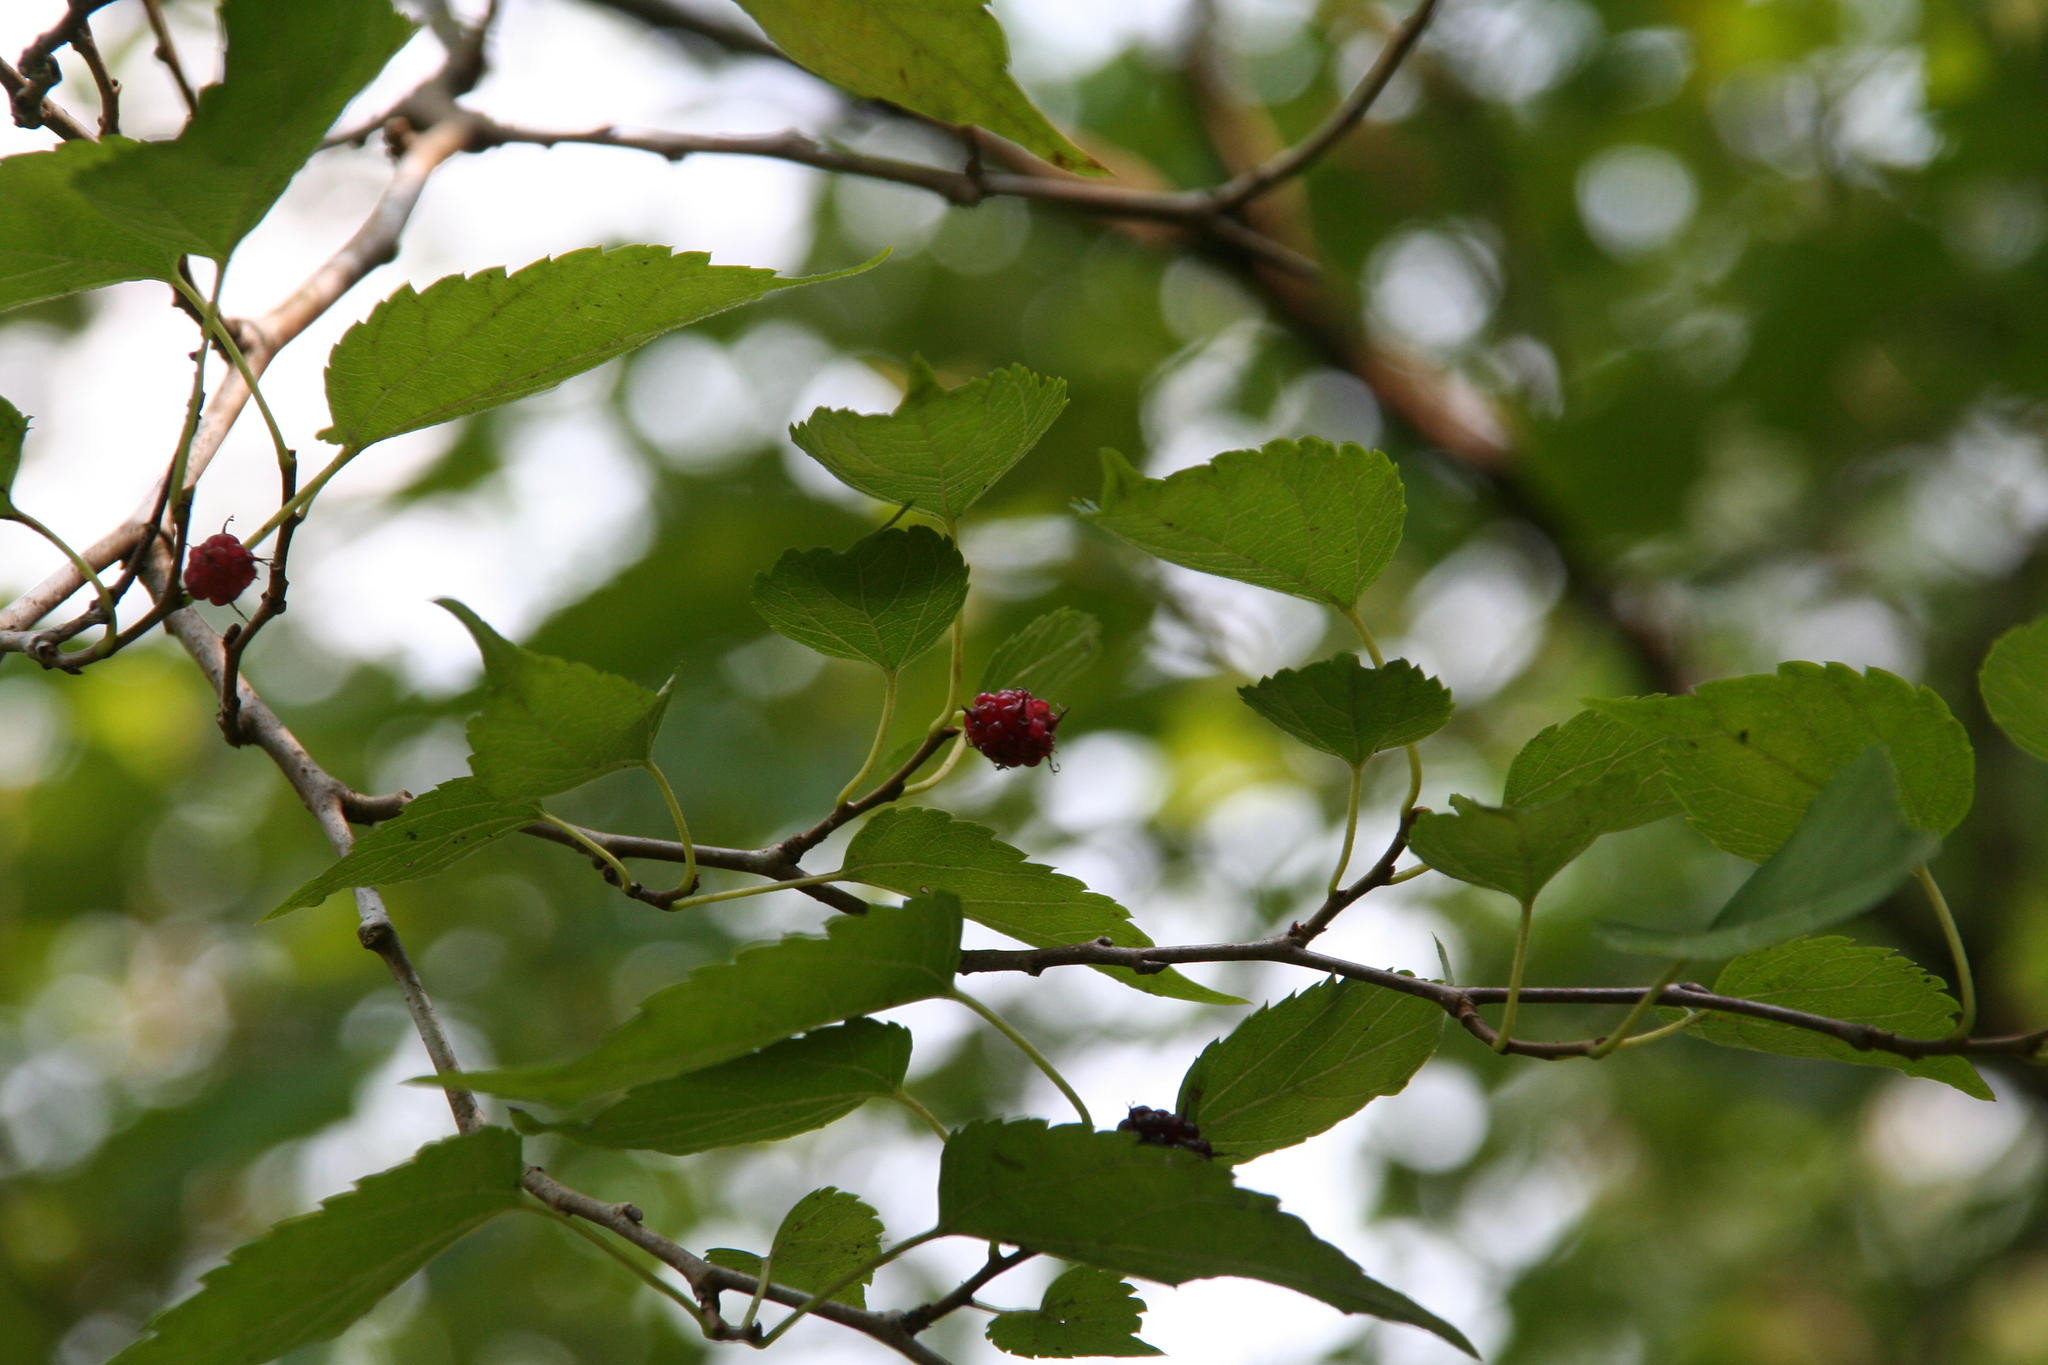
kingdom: Plantae
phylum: Tracheophyta
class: Magnoliopsida
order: Rosales
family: Moraceae
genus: Morus
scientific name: Morus alba
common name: White mulberry
